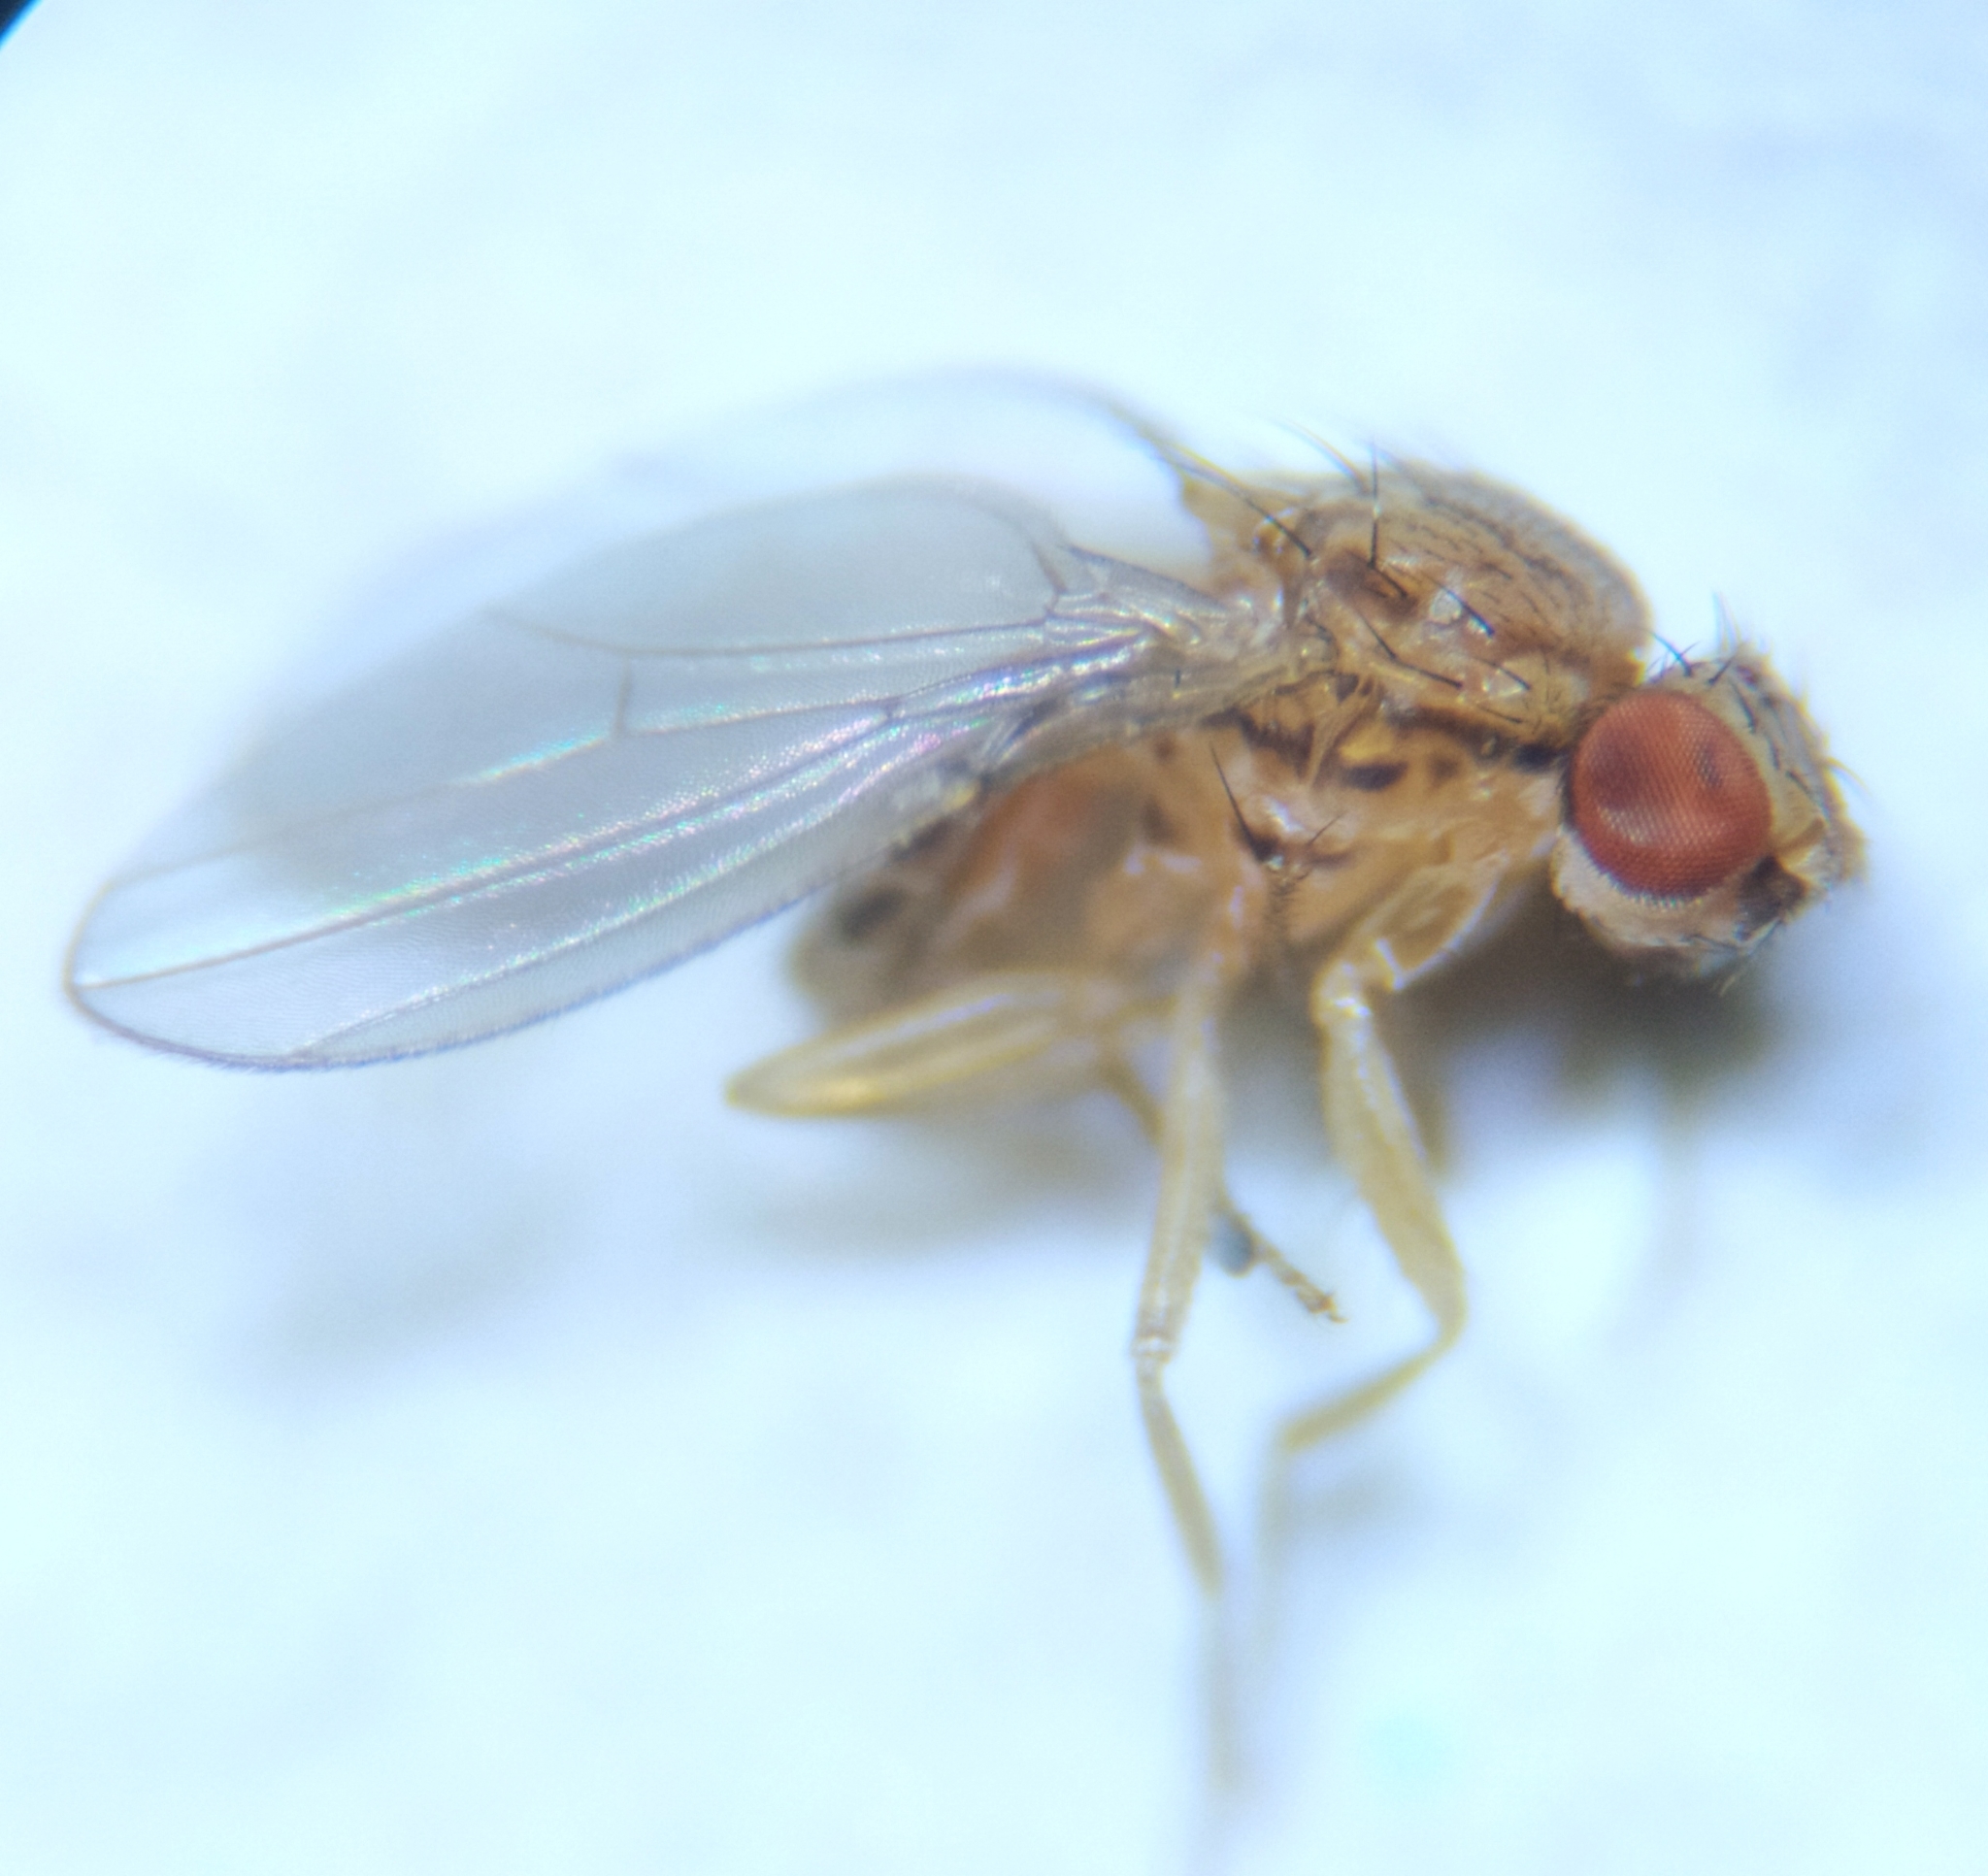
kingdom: Animalia
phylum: Arthropoda
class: Insecta
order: Diptera
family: Drosophilidae
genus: Drosophila
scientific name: Drosophila busckii
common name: Pomace fly
